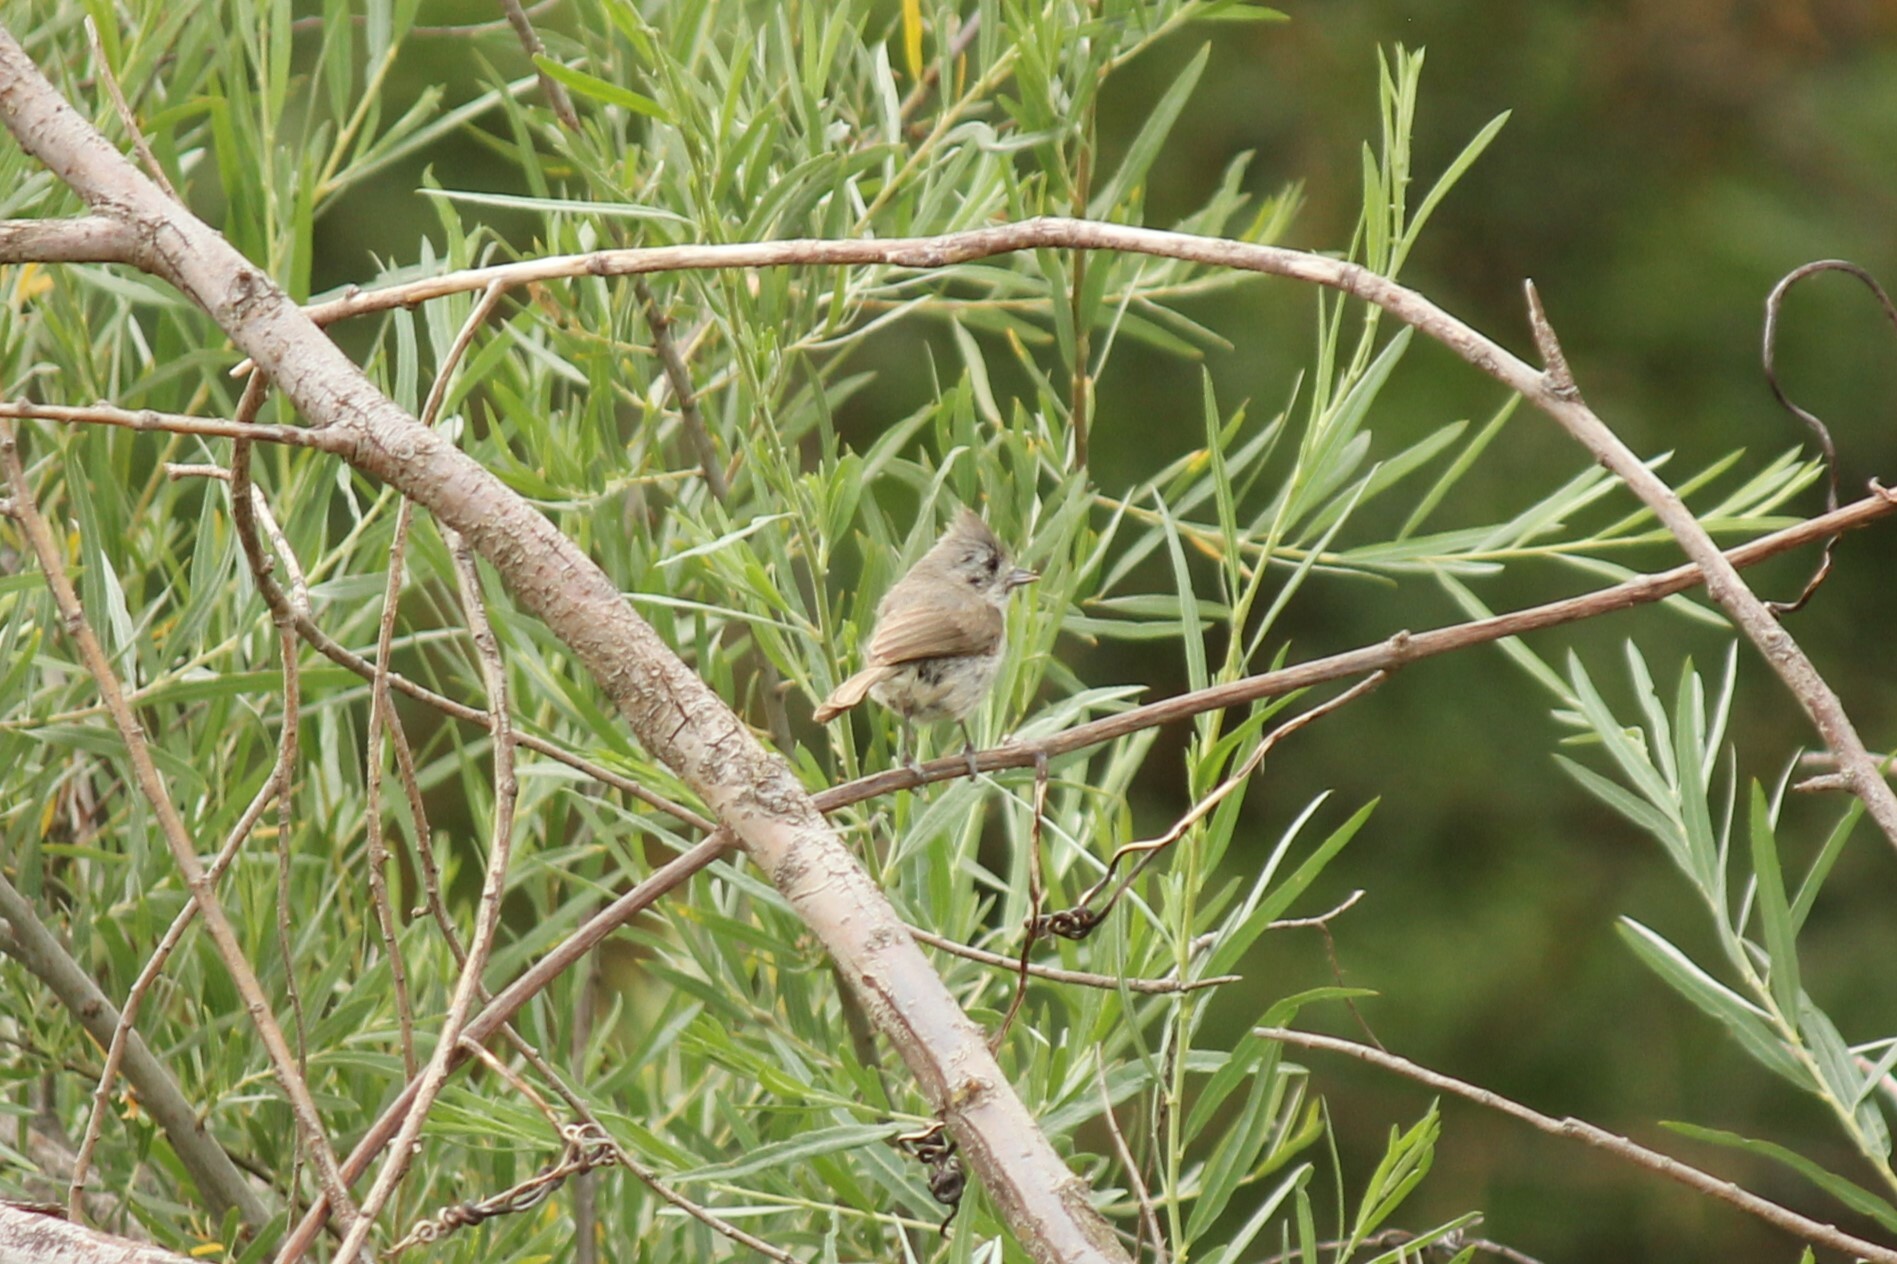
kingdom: Animalia
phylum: Chordata
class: Aves
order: Passeriformes
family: Paridae
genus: Baeolophus
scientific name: Baeolophus inornatus
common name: Oak titmouse
